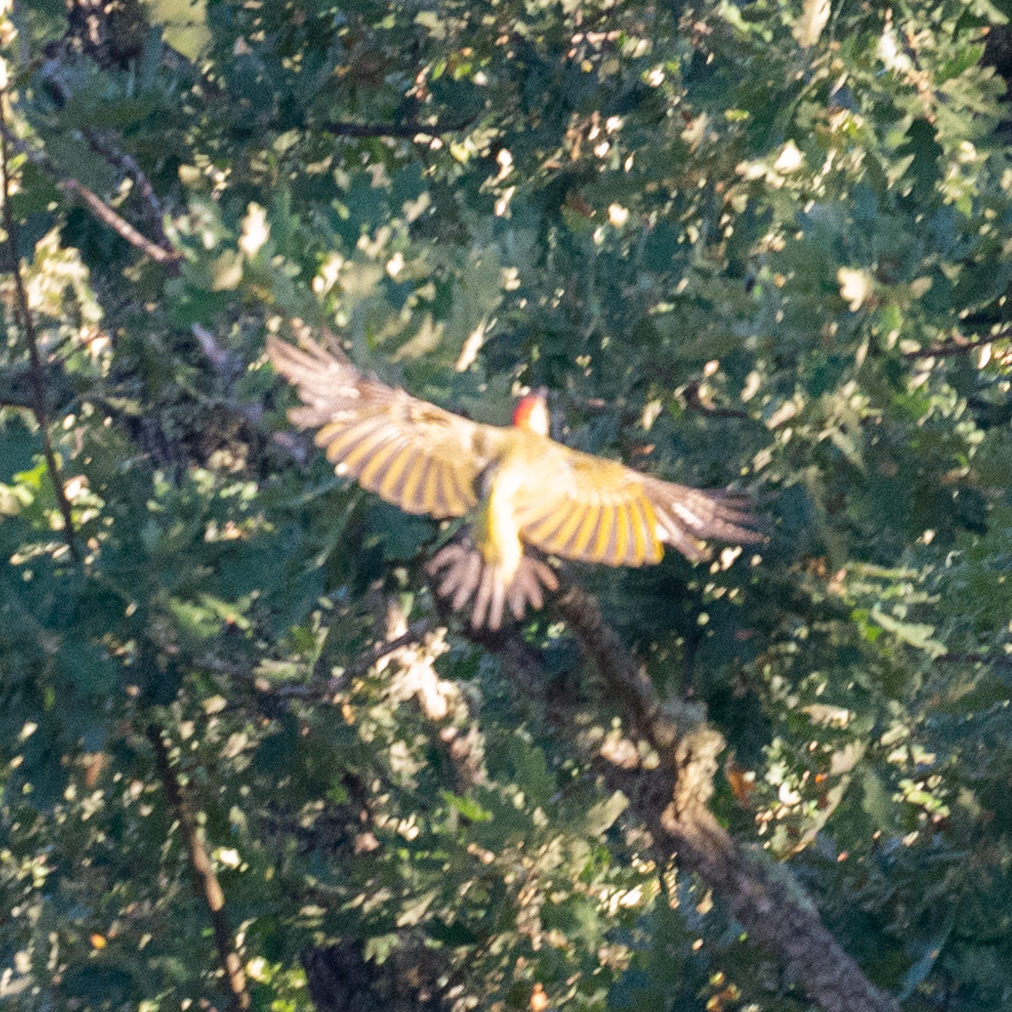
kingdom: Animalia
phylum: Chordata
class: Aves
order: Piciformes
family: Picidae
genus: Picus
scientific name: Picus sharpei
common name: Iberian green woodpecker
